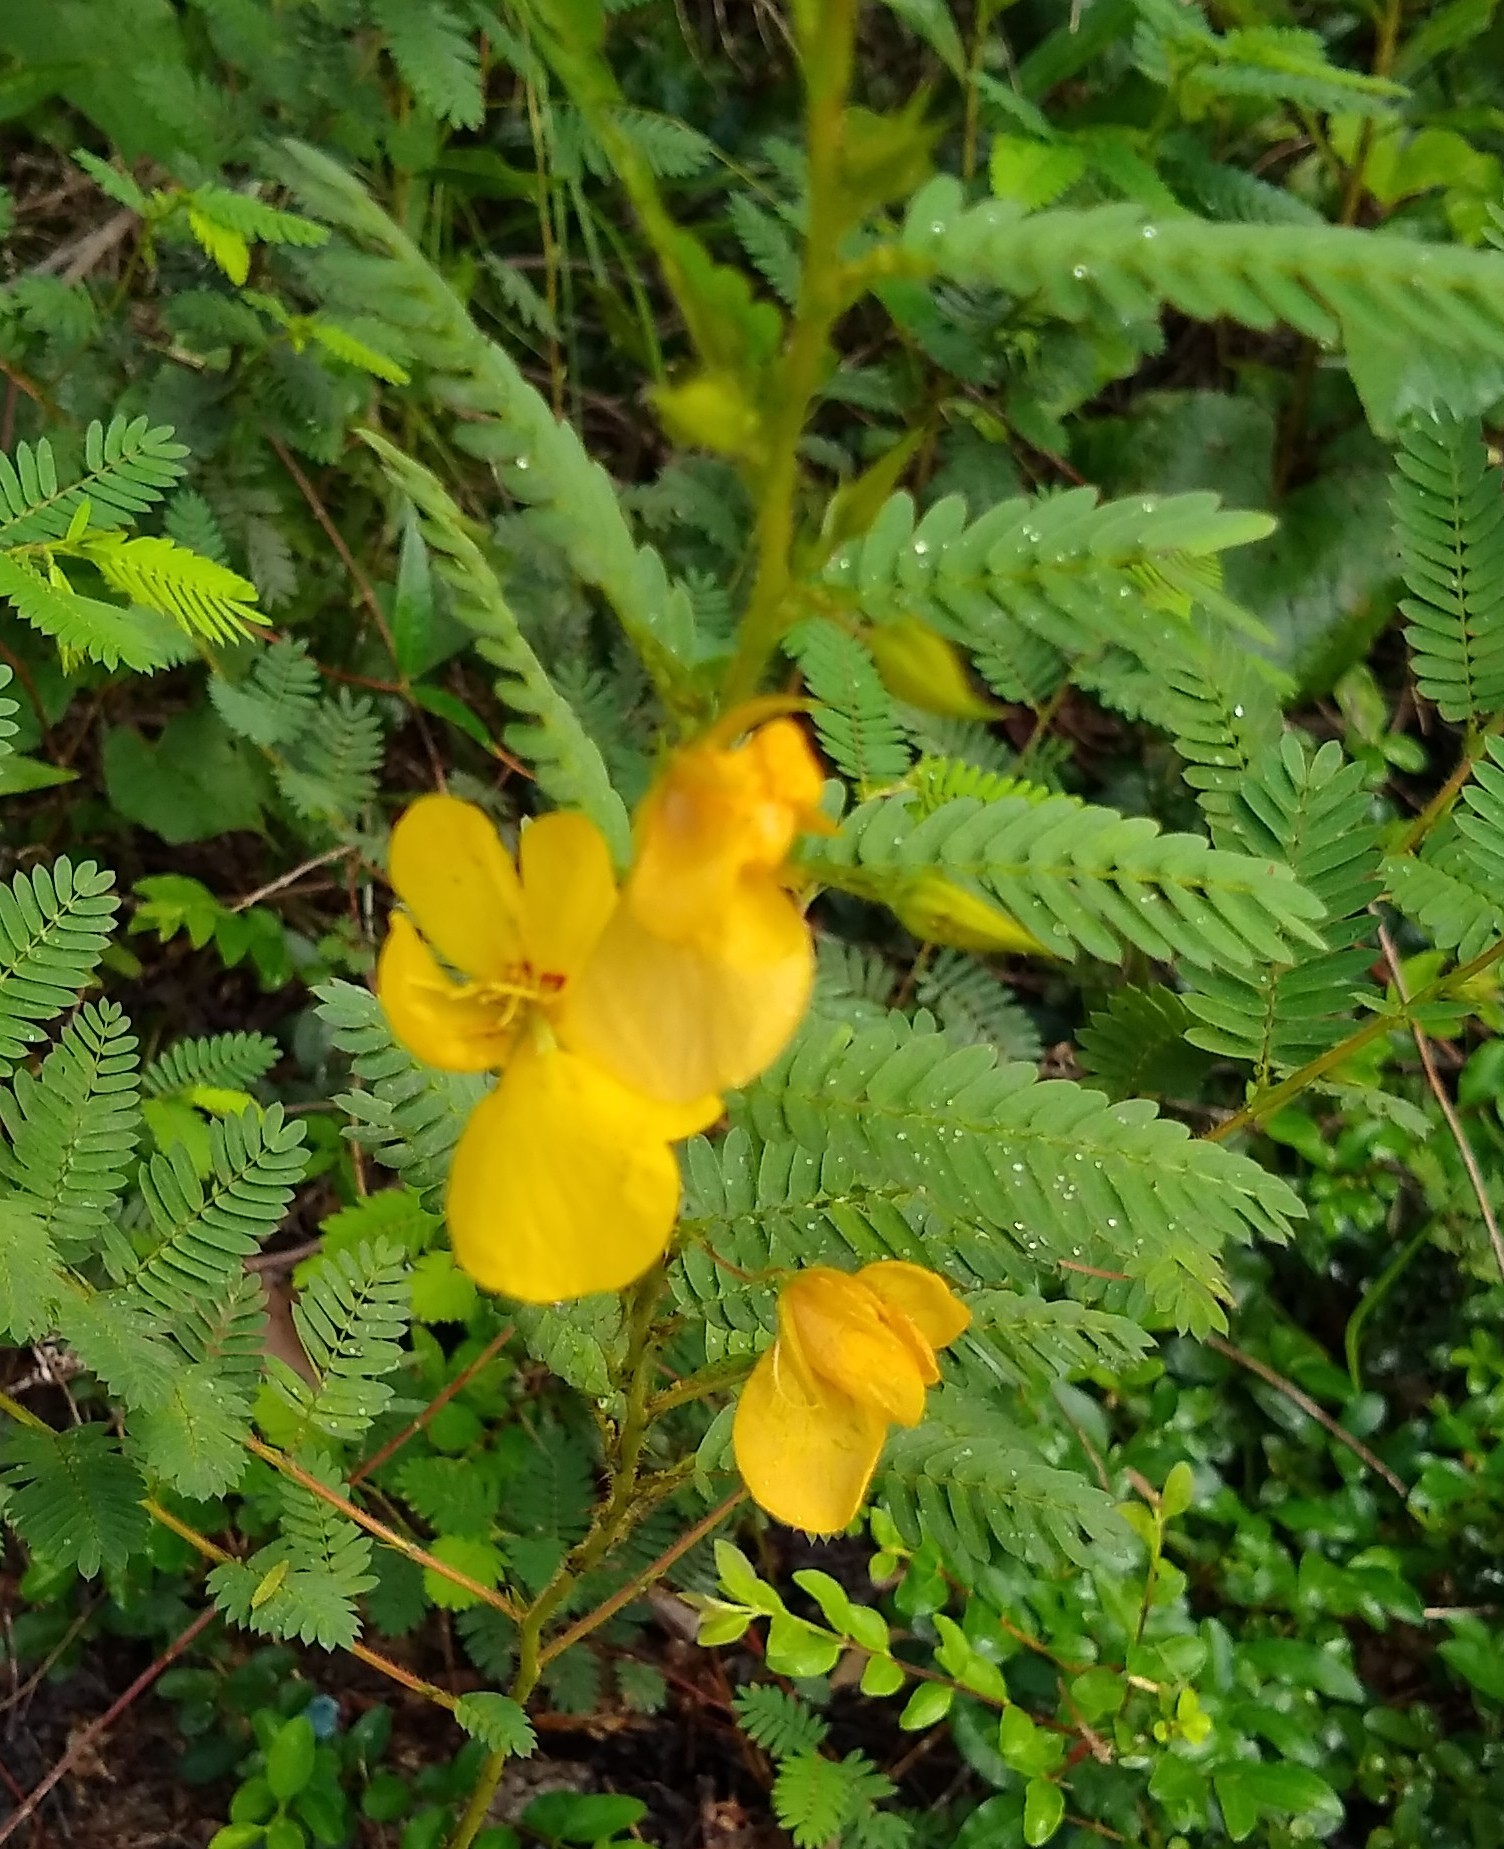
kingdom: Plantae
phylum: Tracheophyta
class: Magnoliopsida
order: Fabales
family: Fabaceae
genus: Chamaecrista
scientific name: Chamaecrista fasciculata
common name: Golden cassia
